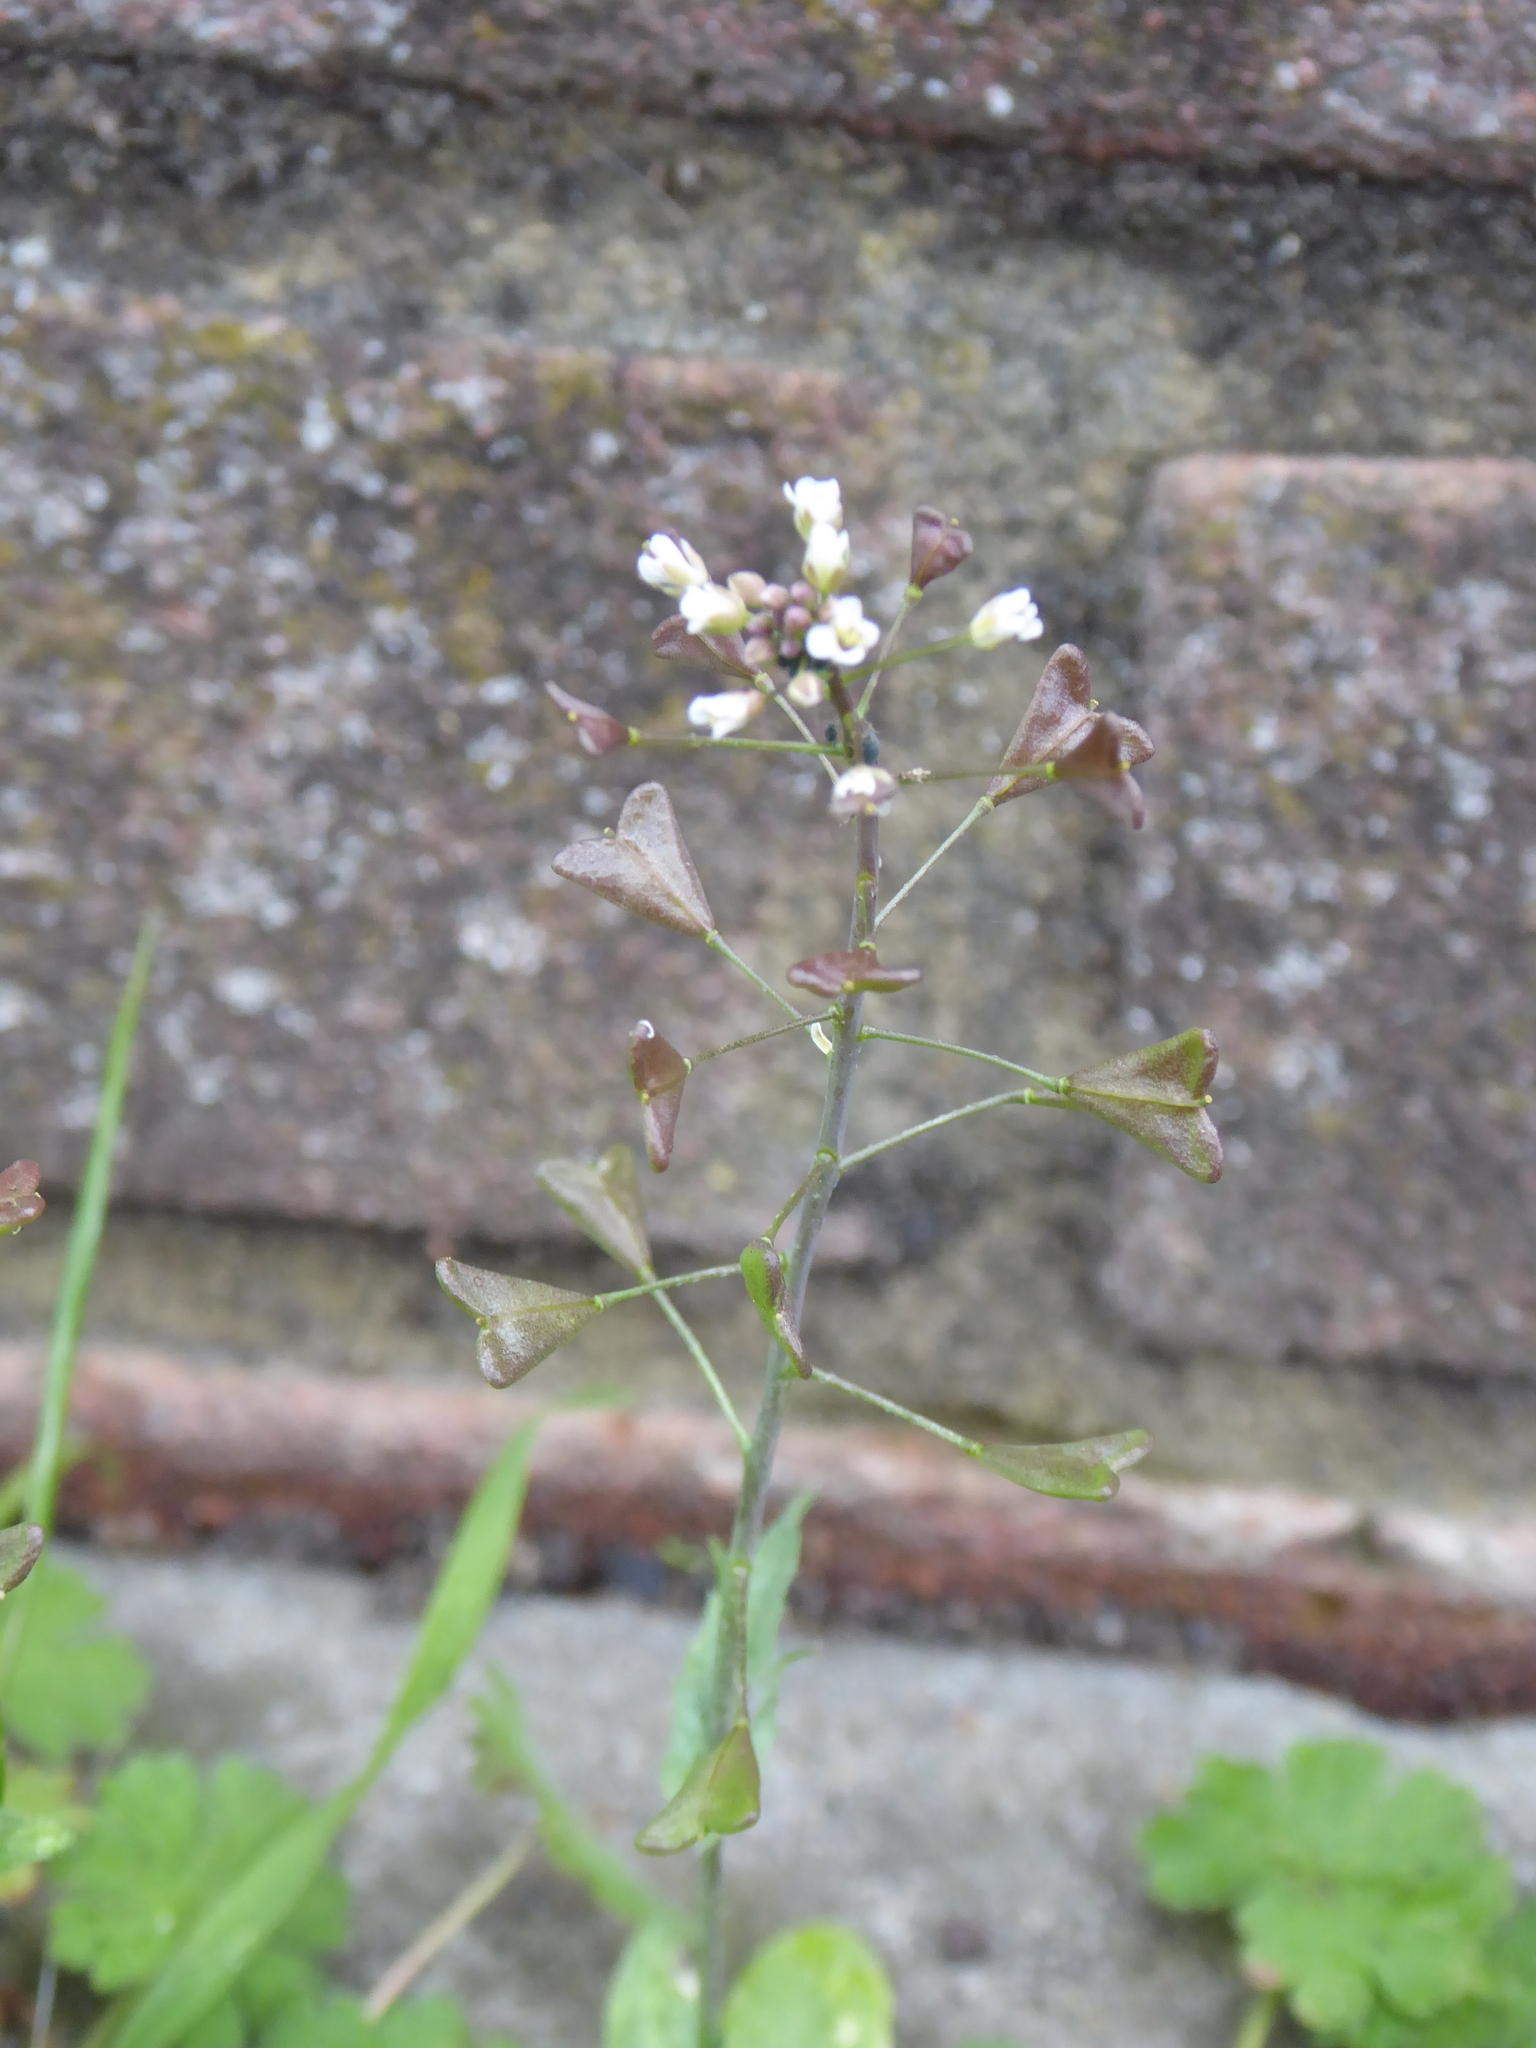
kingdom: Plantae
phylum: Tracheophyta
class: Magnoliopsida
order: Brassicales
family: Brassicaceae
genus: Capsella
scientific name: Capsella bursa-pastoris
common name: Shepherd's purse
